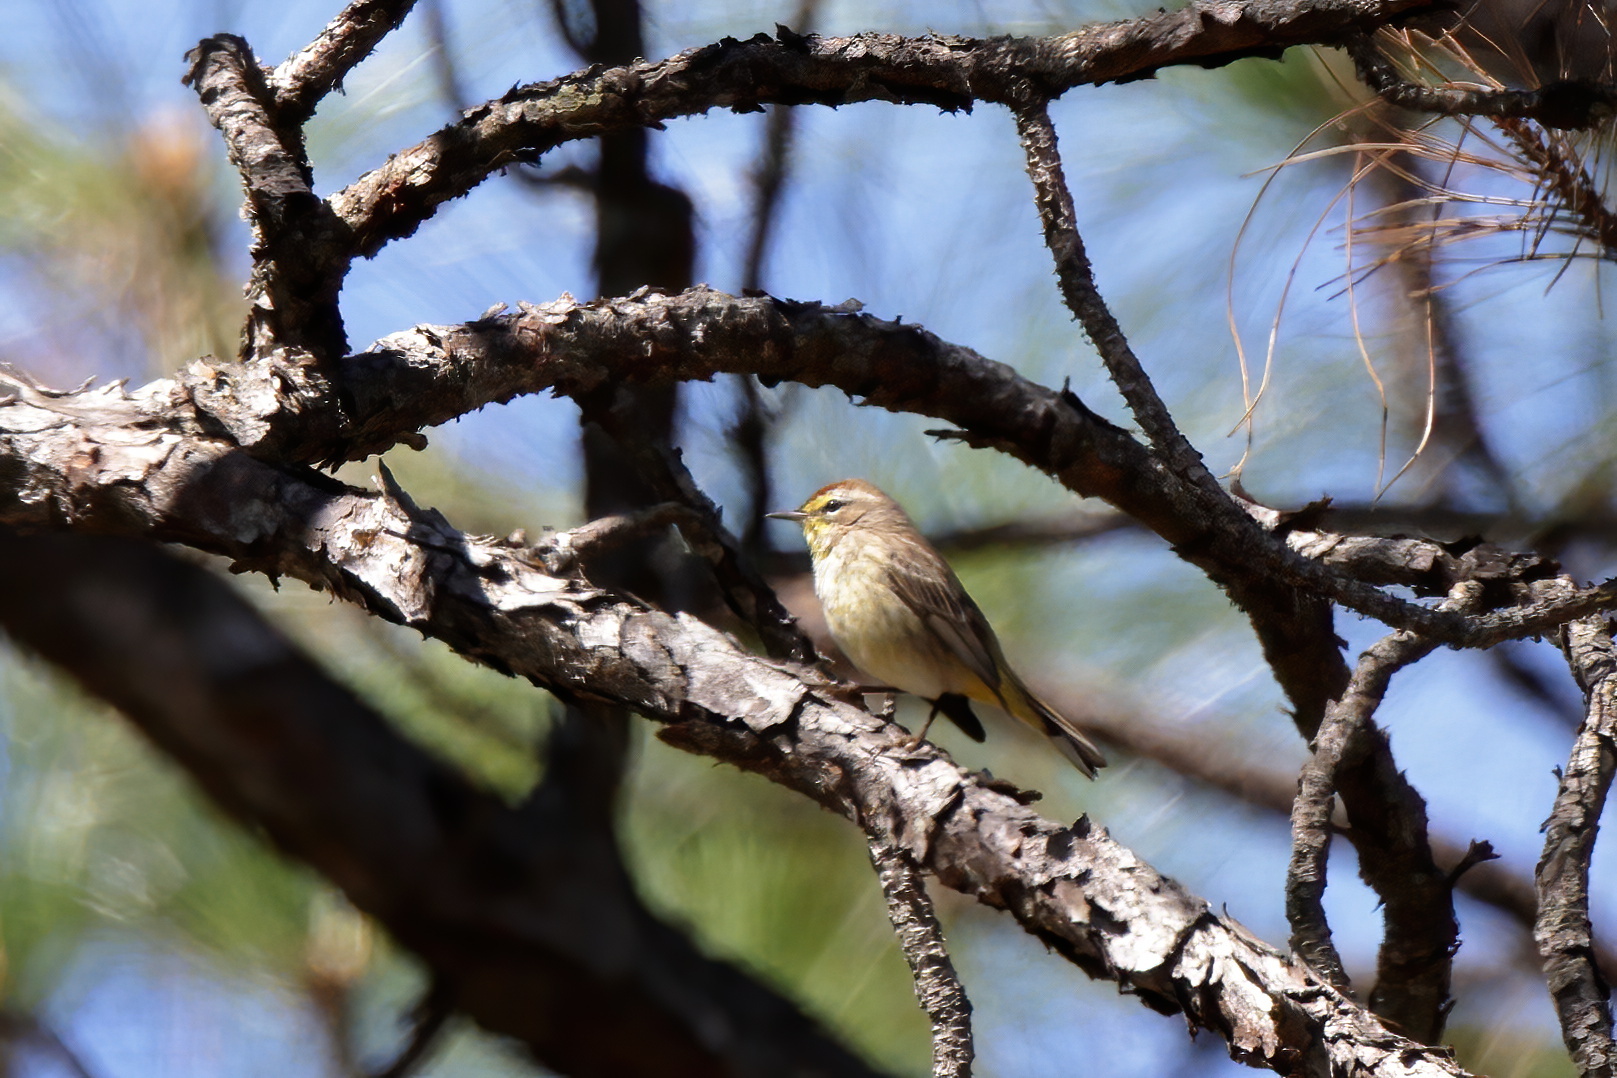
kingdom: Animalia
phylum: Chordata
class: Aves
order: Passeriformes
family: Parulidae
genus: Setophaga
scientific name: Setophaga palmarum
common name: Palm warbler
